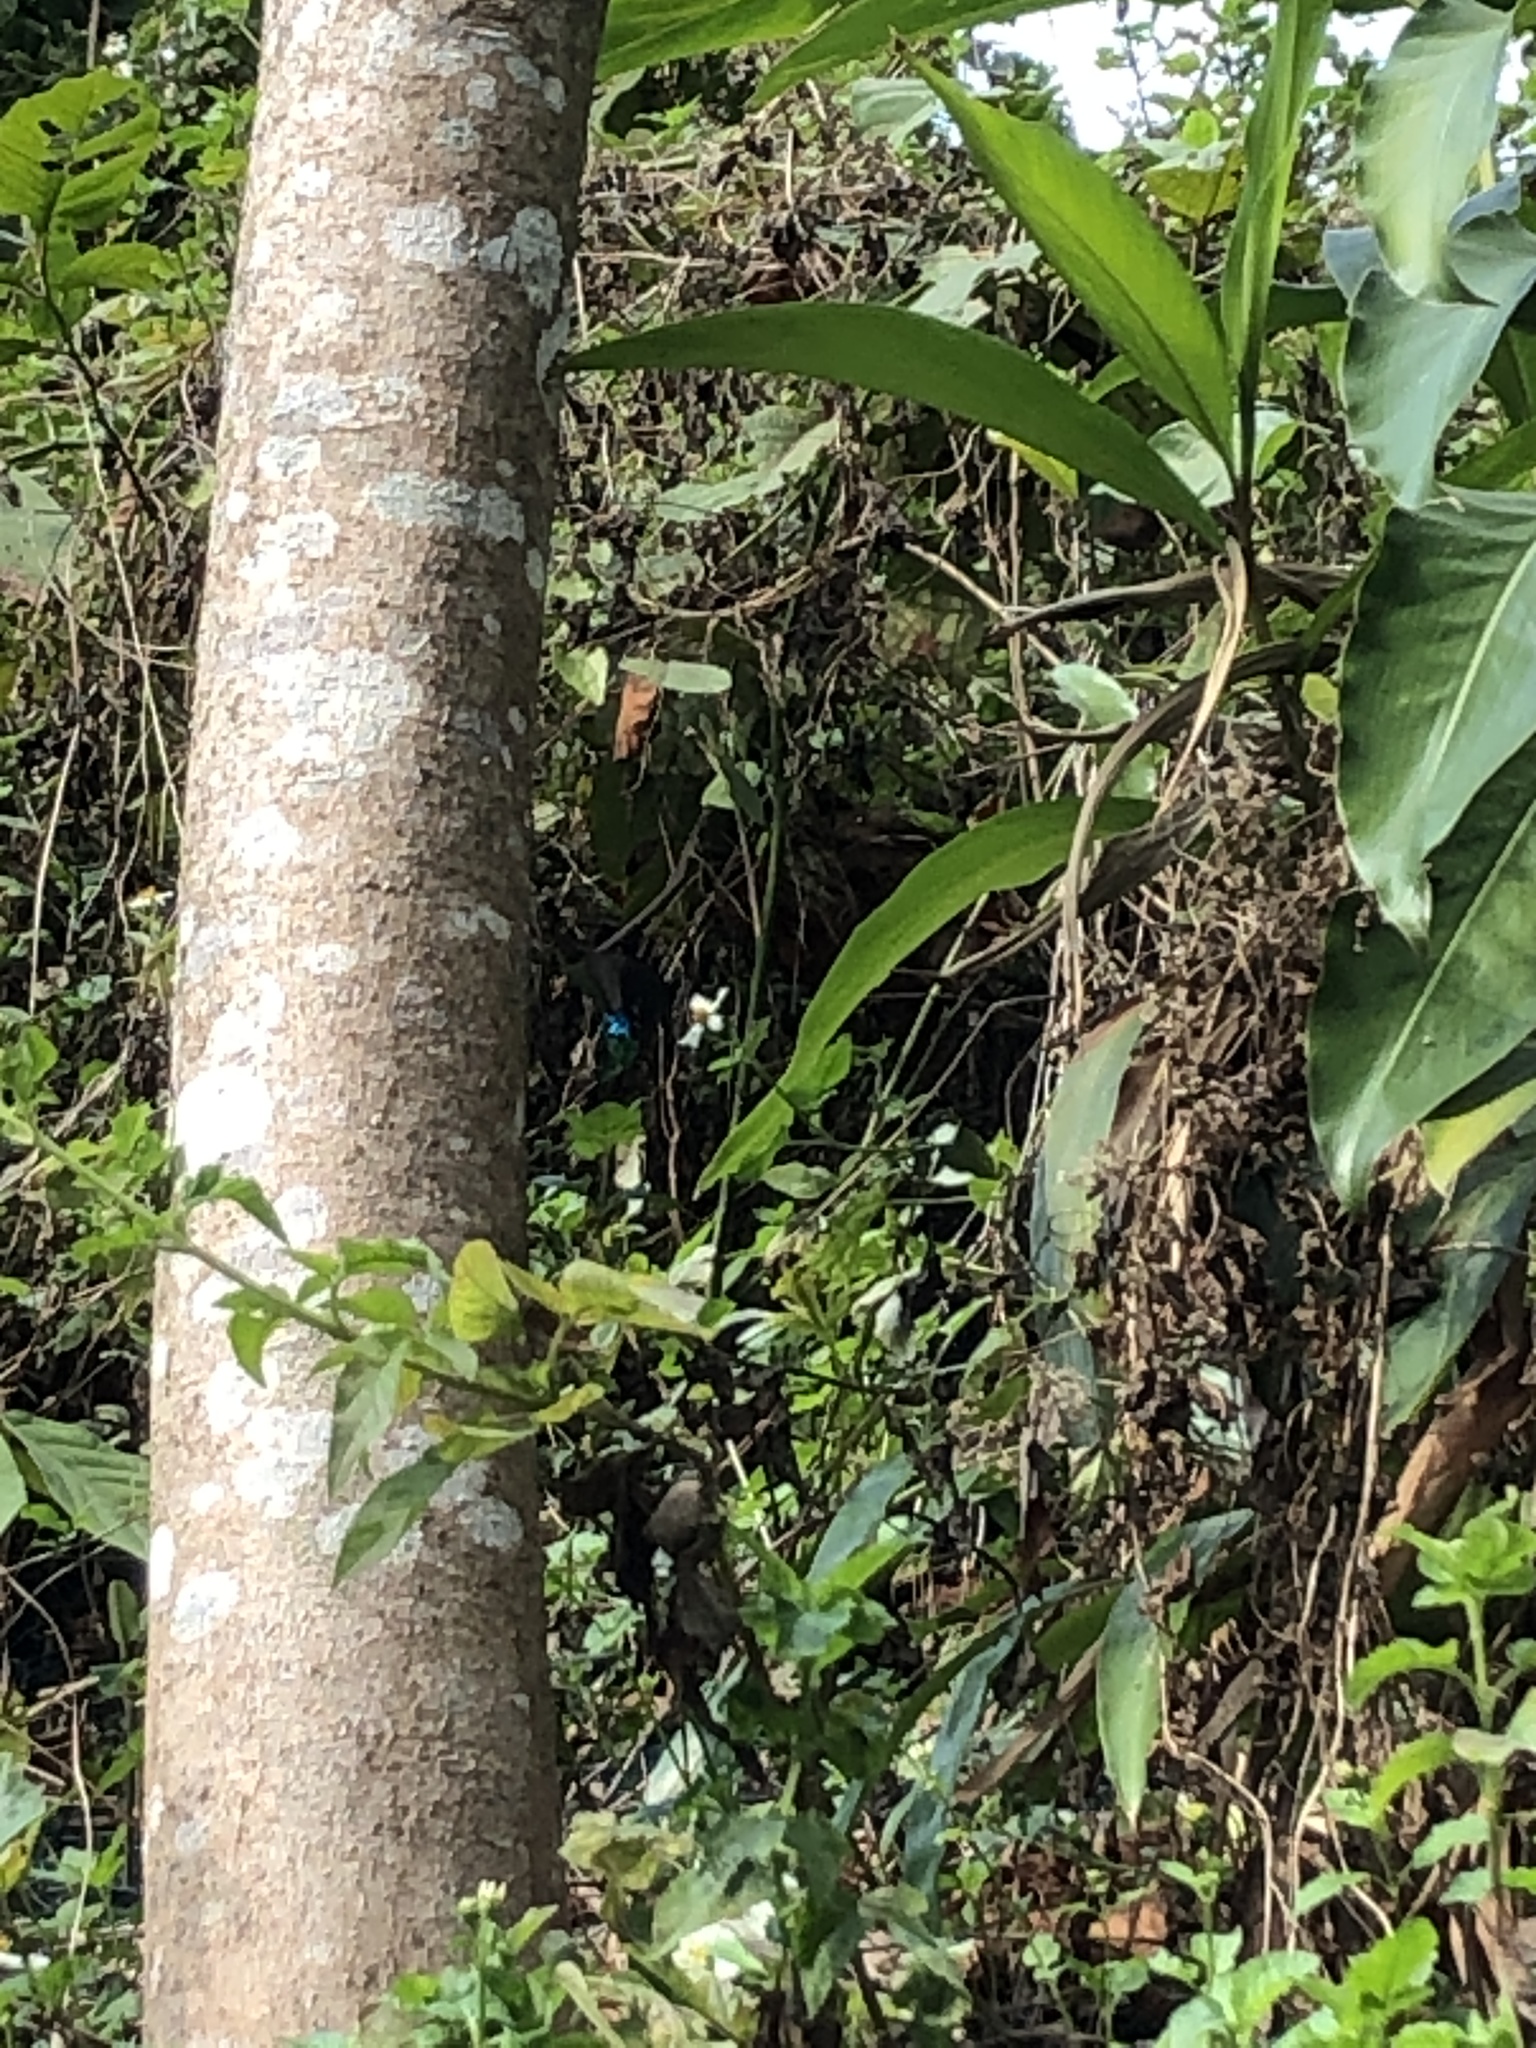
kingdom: Animalia
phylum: Arthropoda
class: Insecta
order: Lepidoptera
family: Papilionidae
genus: Papilio
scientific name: Papilio paris
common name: Paris peacock
